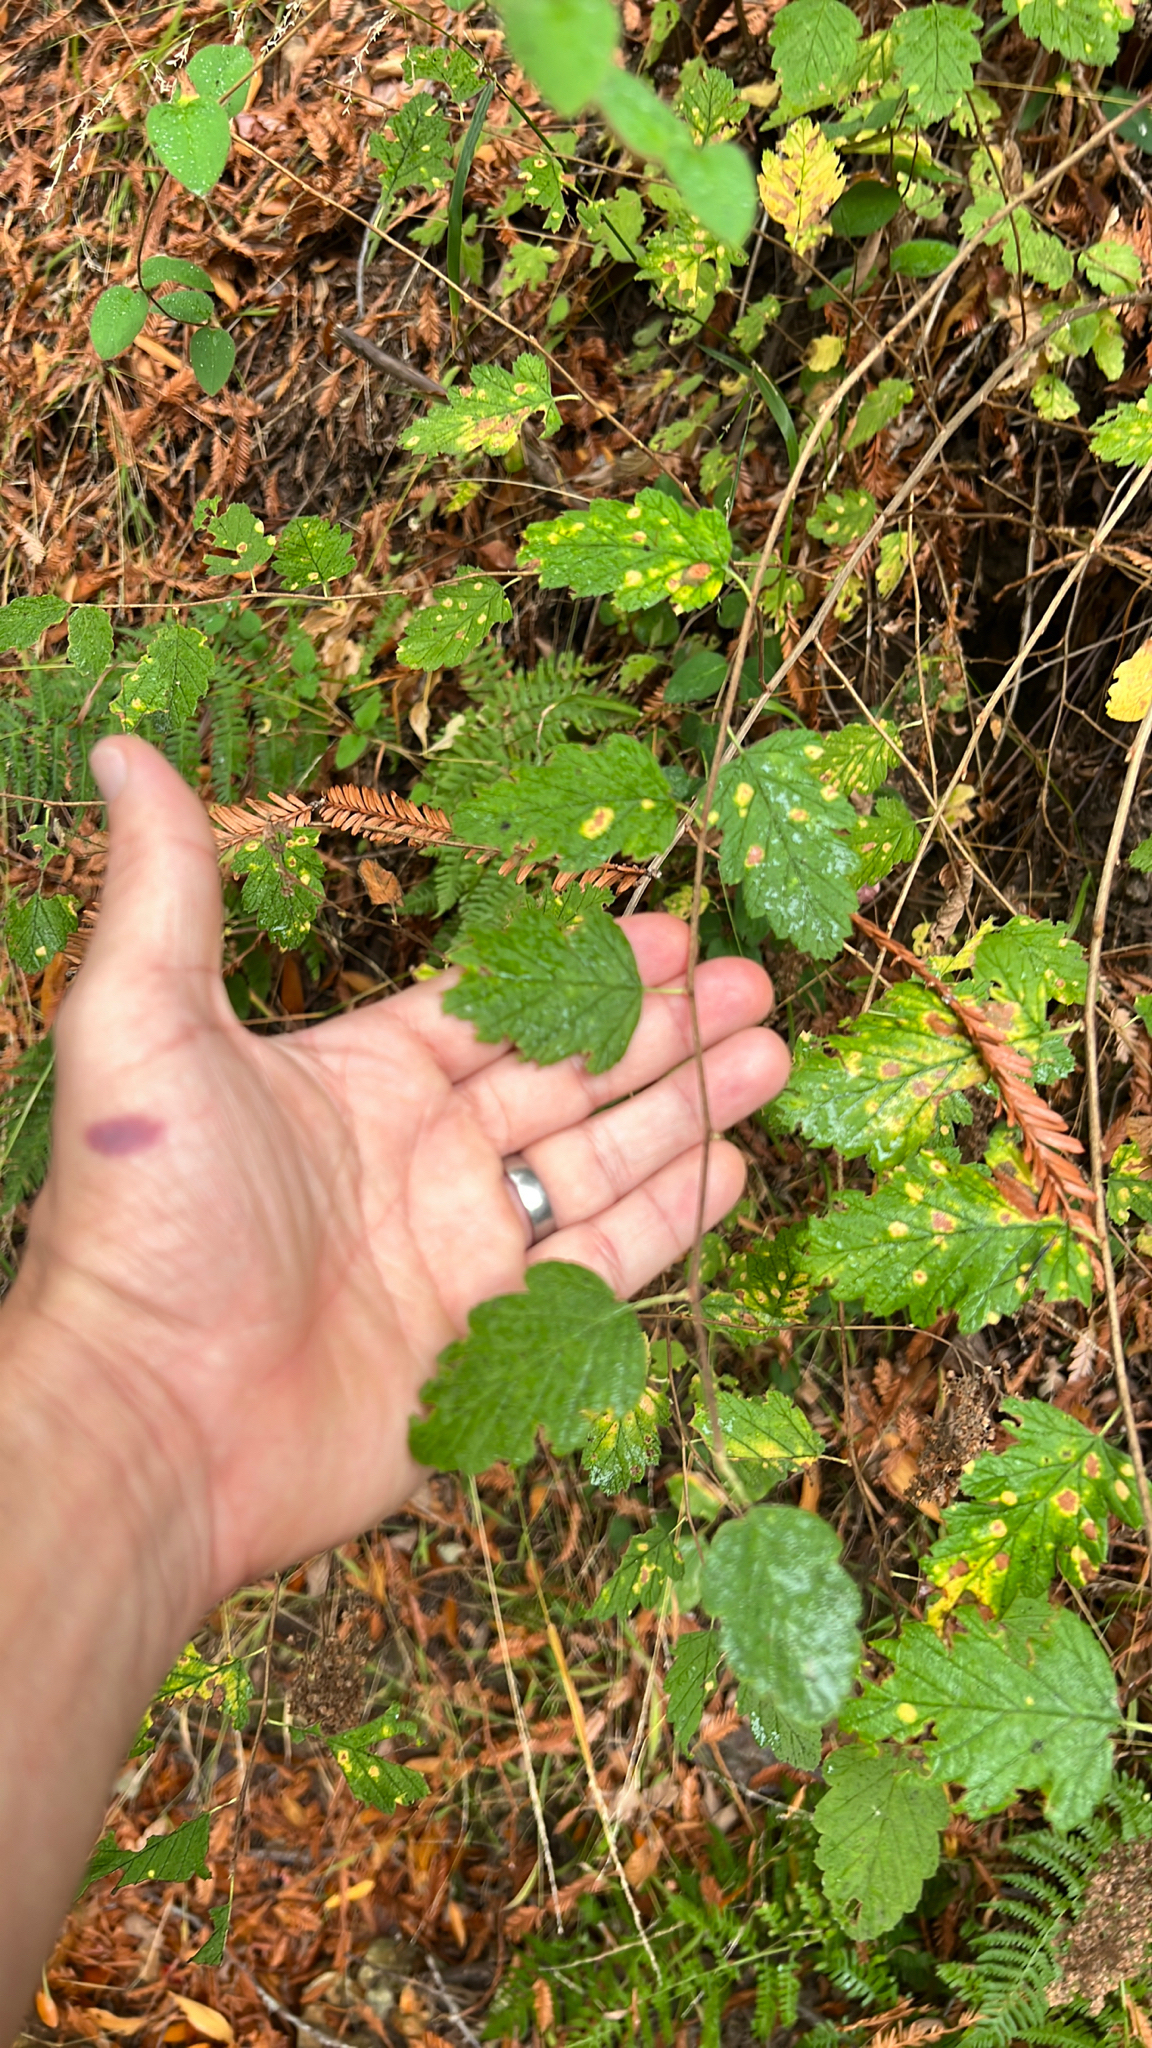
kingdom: Plantae
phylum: Tracheophyta
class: Magnoliopsida
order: Rosales
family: Rosaceae
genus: Holodiscus
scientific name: Holodiscus discolor
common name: Oceanspray
